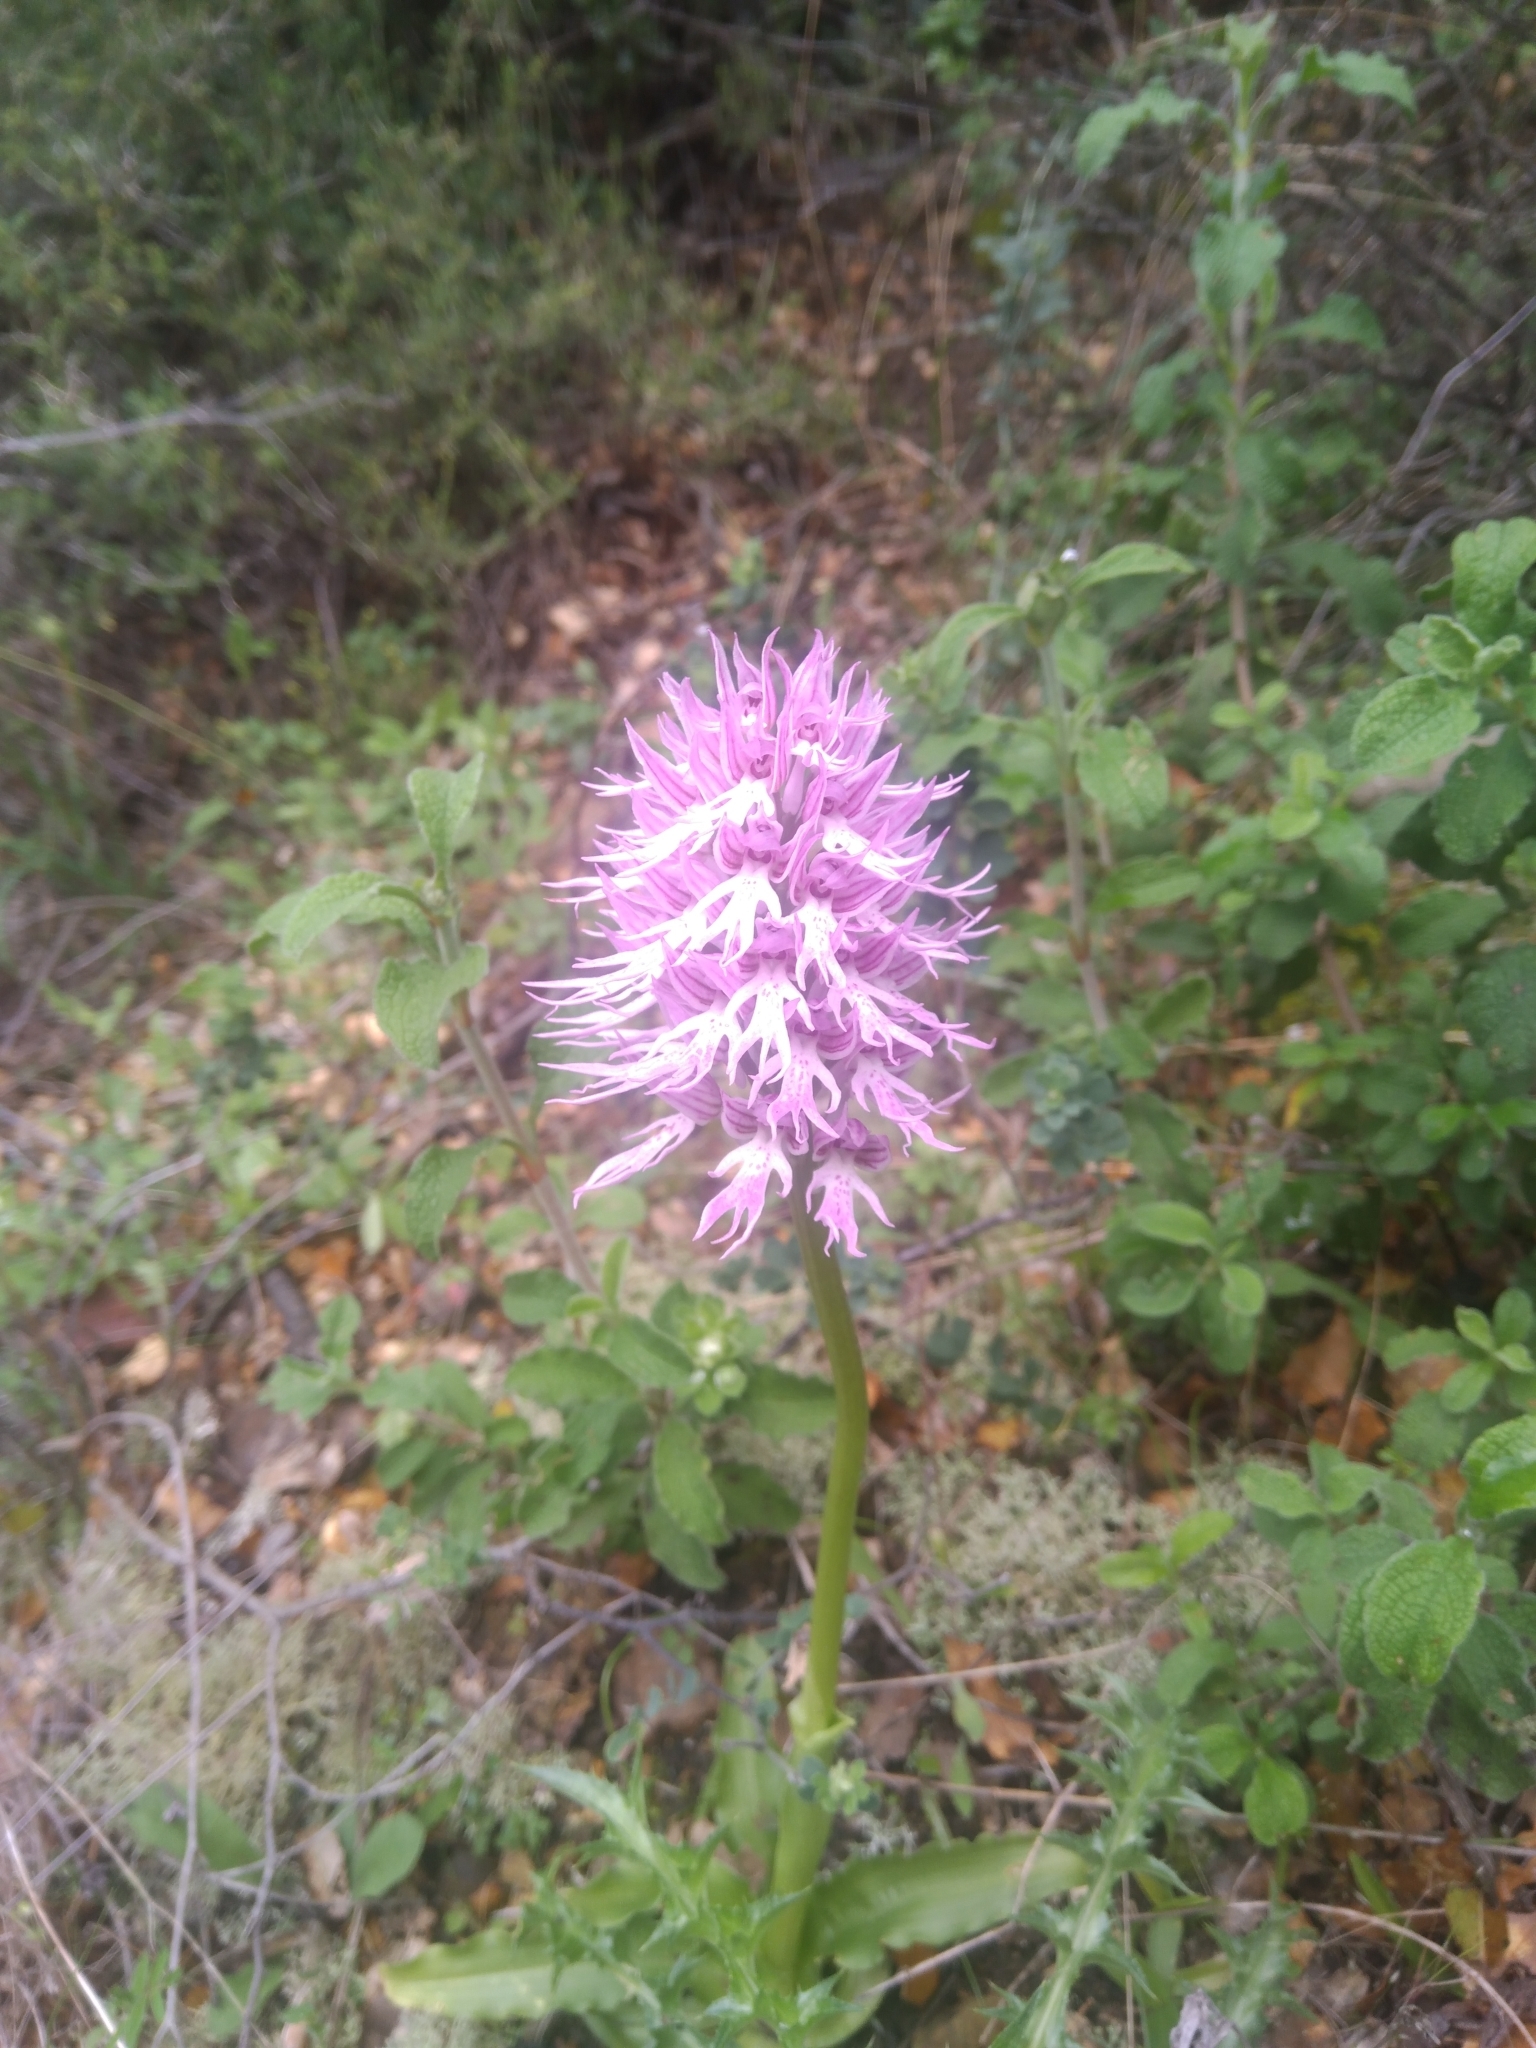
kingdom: Plantae
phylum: Tracheophyta
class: Liliopsida
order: Asparagales
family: Orchidaceae
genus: Orchis
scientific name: Orchis italica
